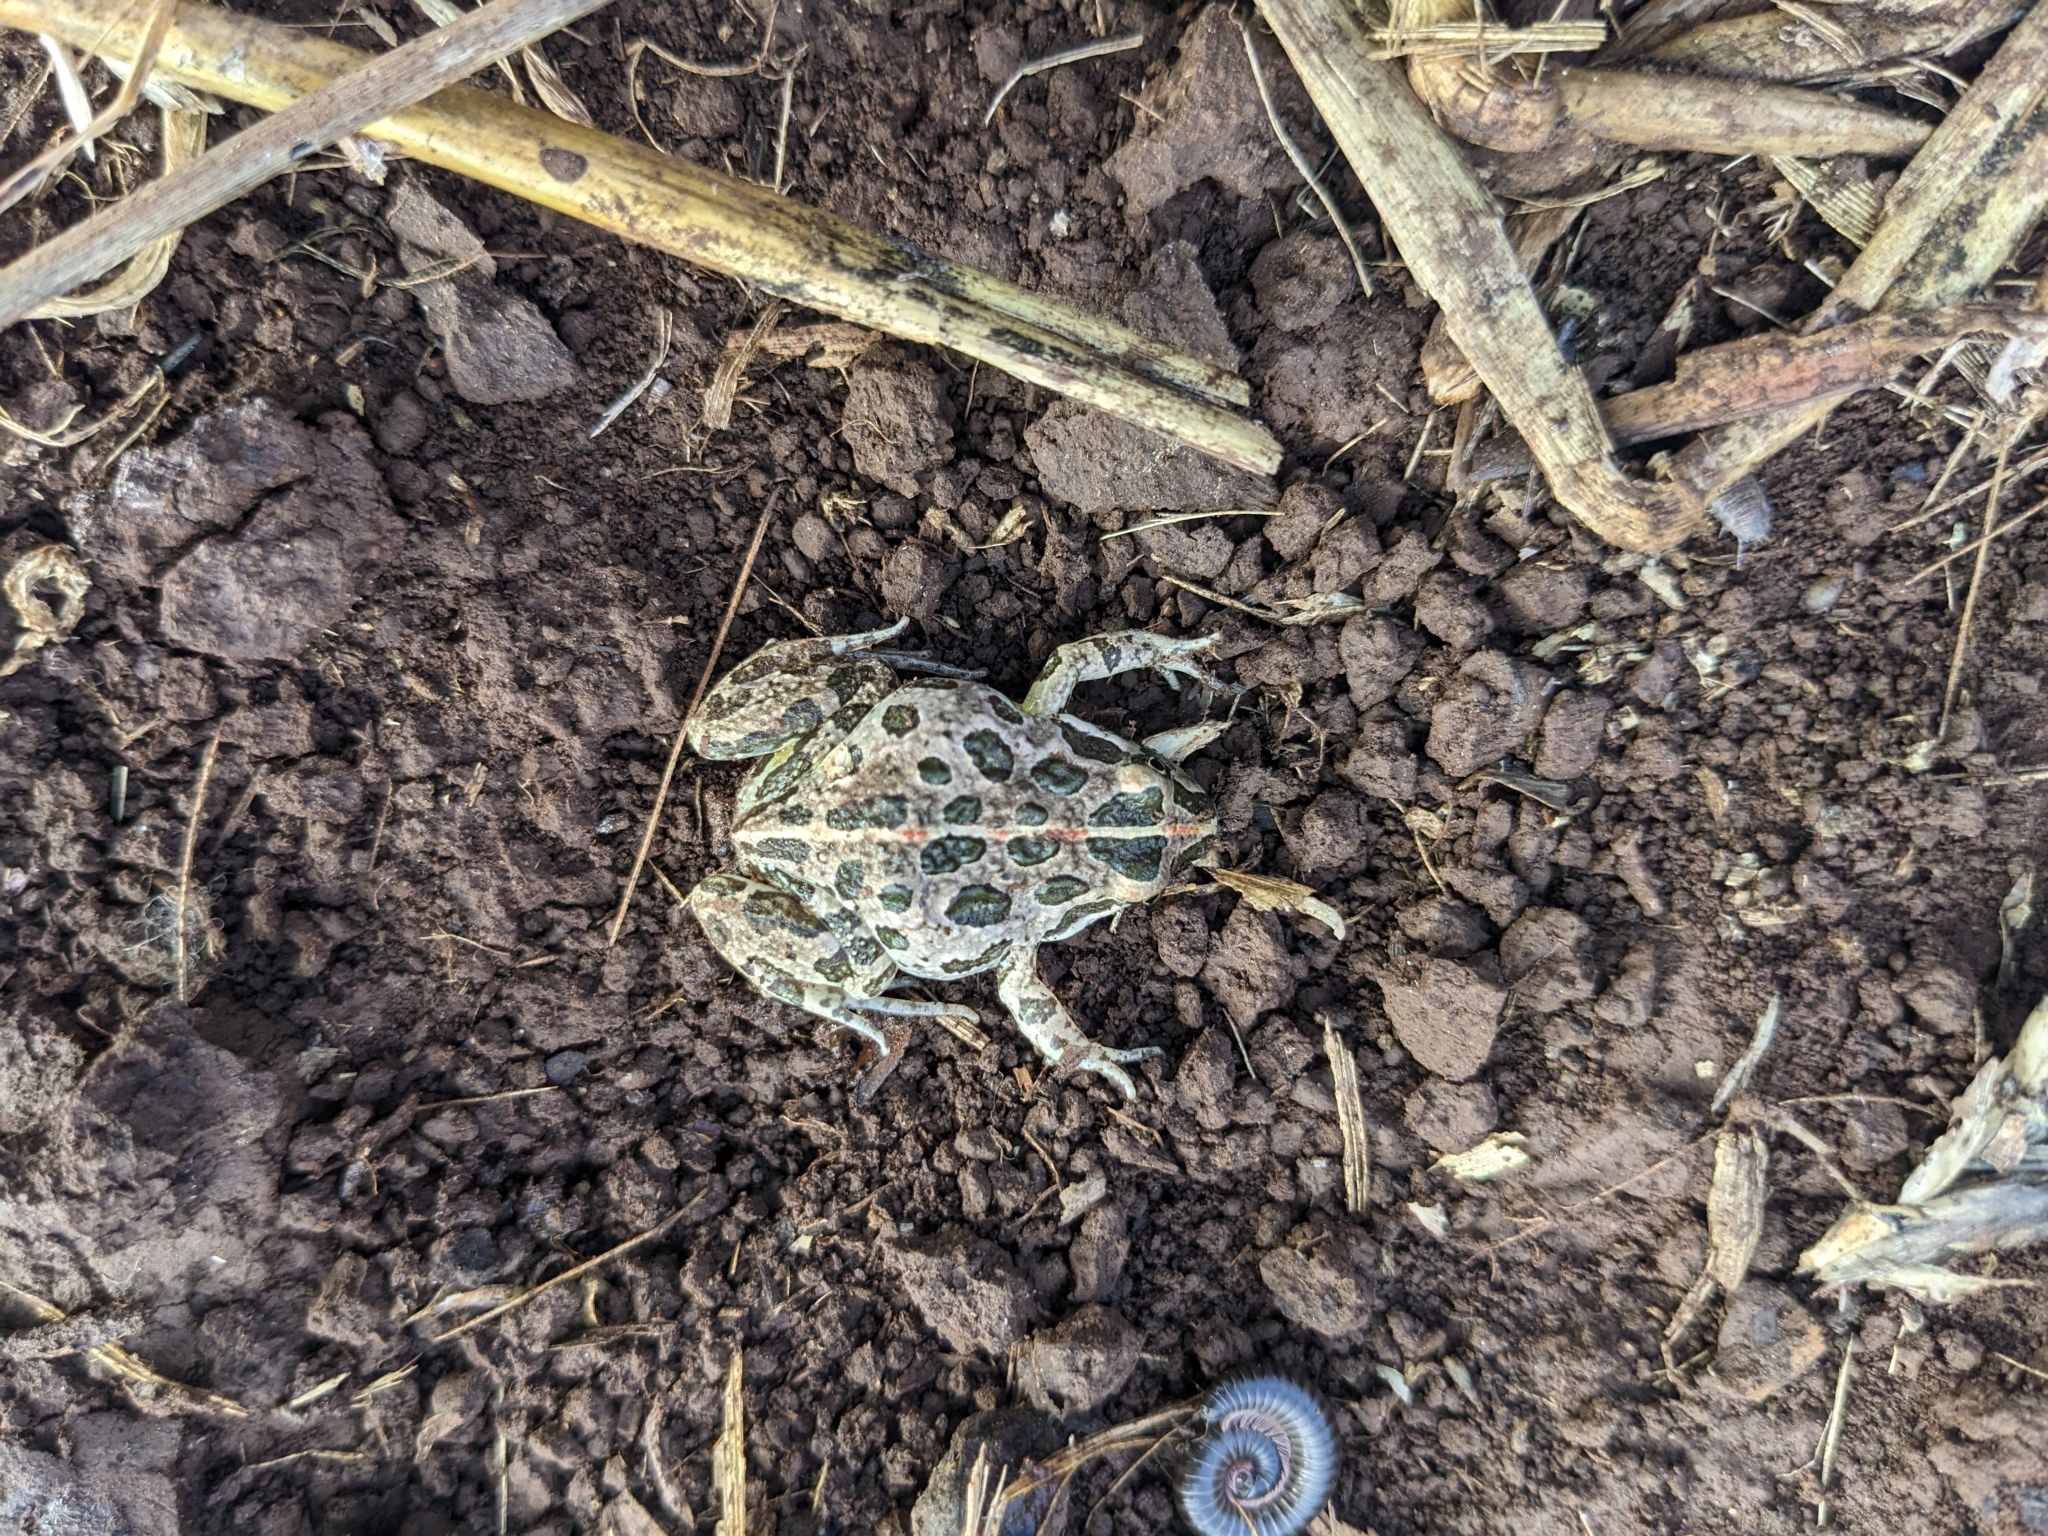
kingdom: Animalia
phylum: Chordata
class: Amphibia
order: Anura
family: Limnodynastidae
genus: Limnodynastes
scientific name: Limnodynastes tasmaniensis
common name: Spotted marsh frog
